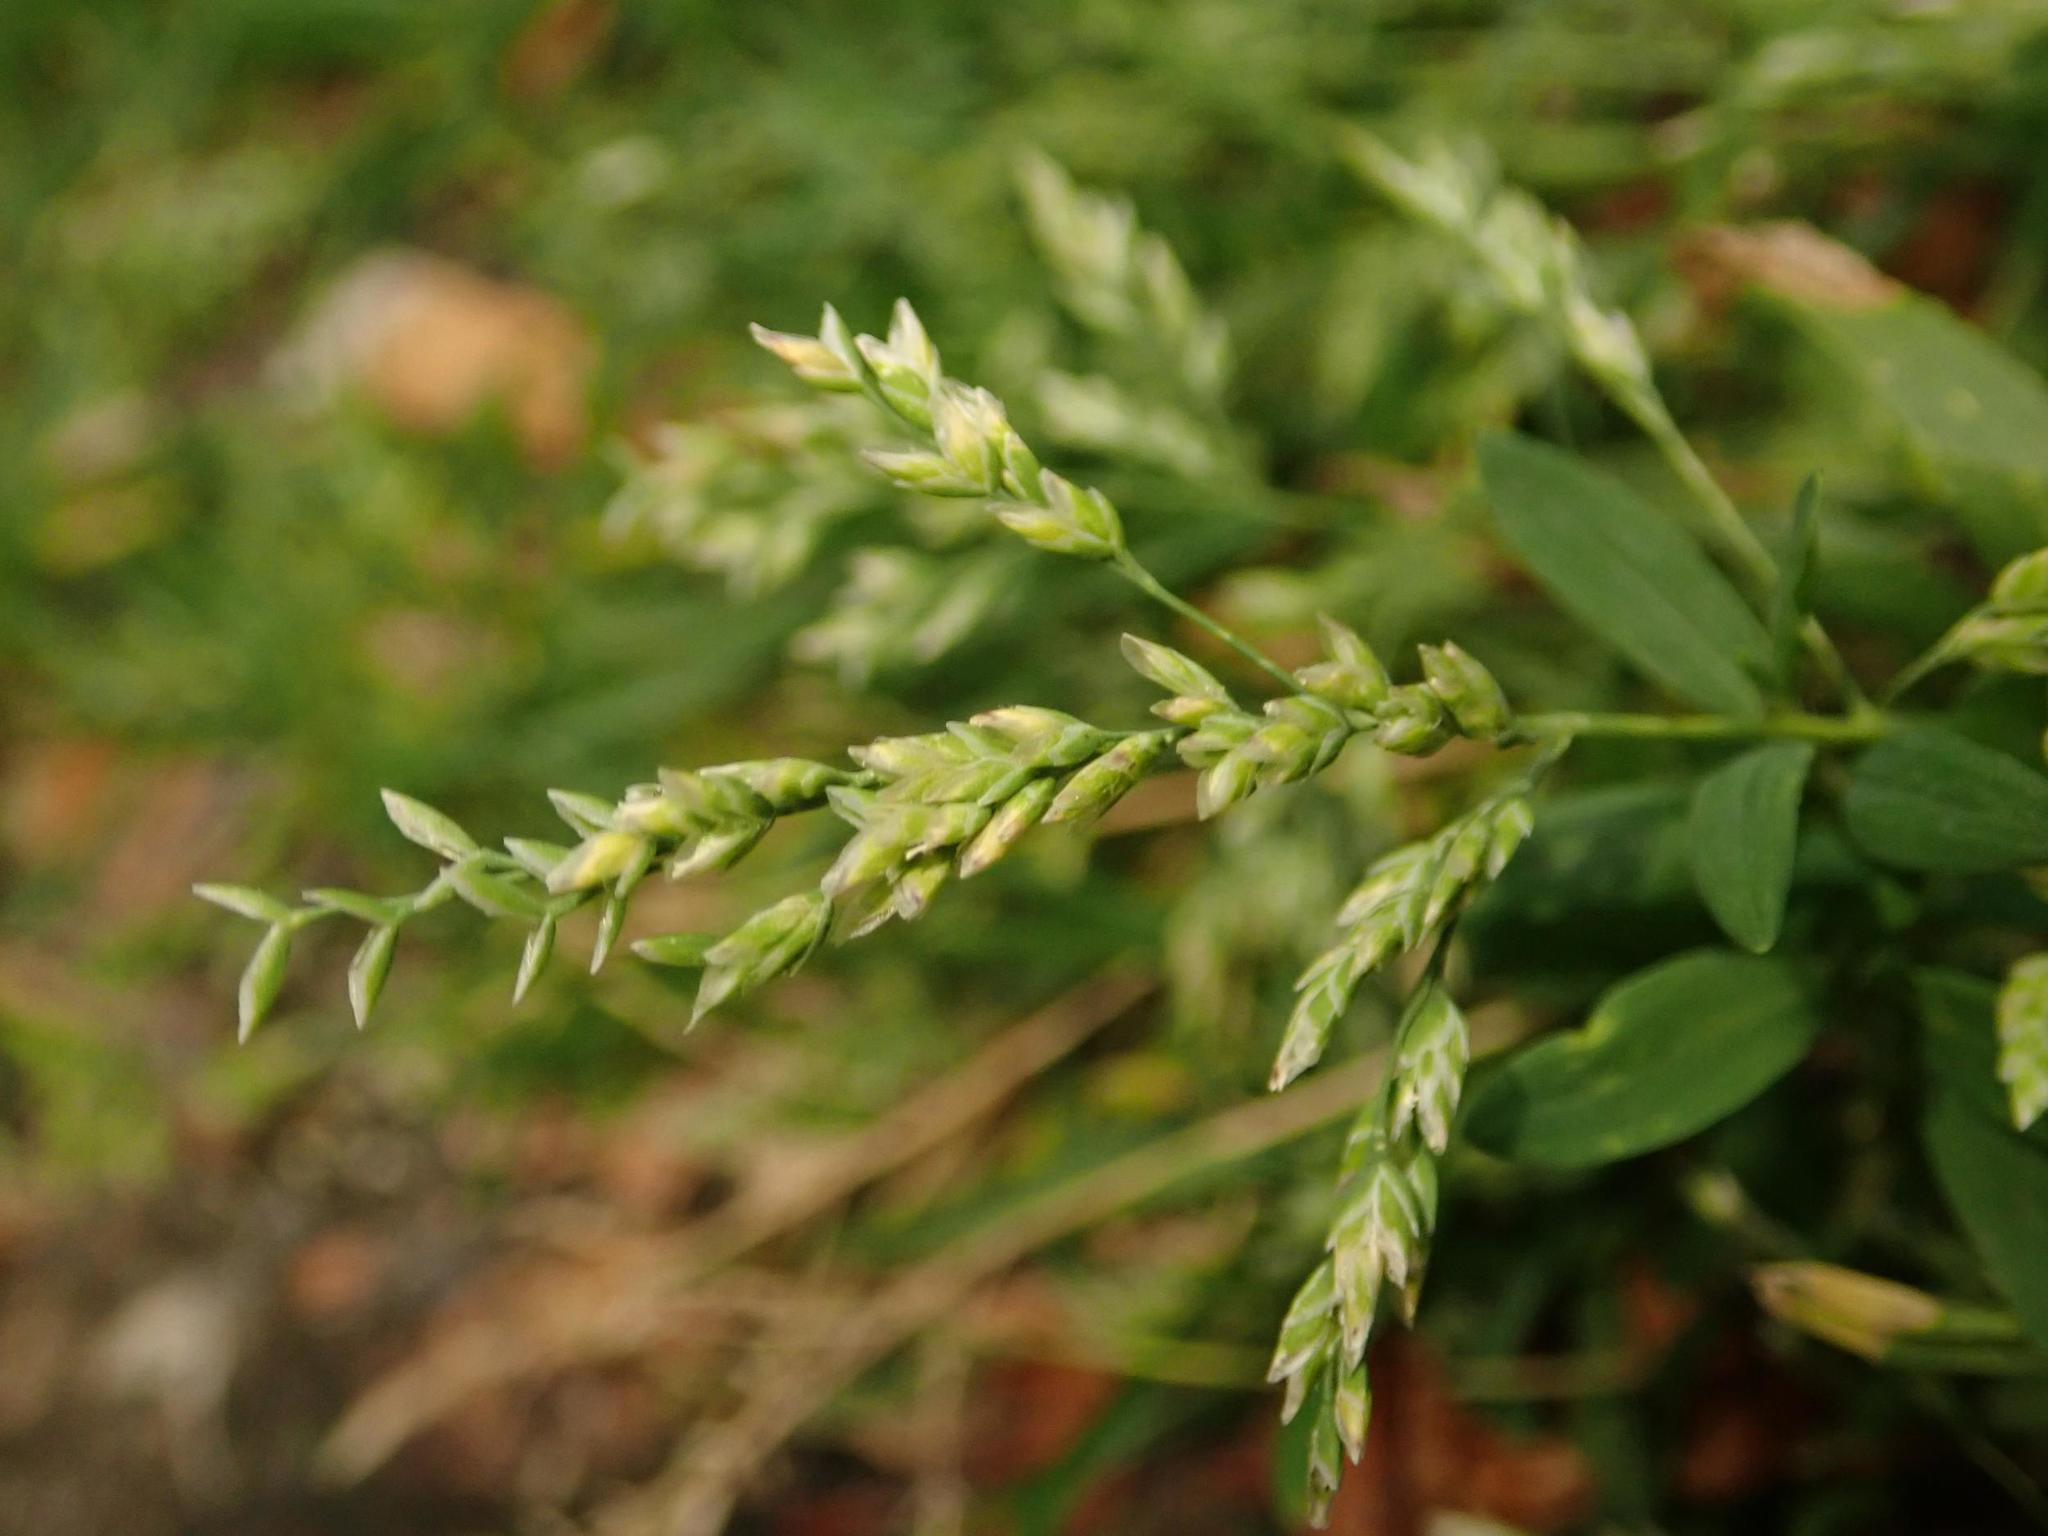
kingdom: Plantae
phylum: Tracheophyta
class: Liliopsida
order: Poales
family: Poaceae
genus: Poa
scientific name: Poa annua
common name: Annual bluegrass
